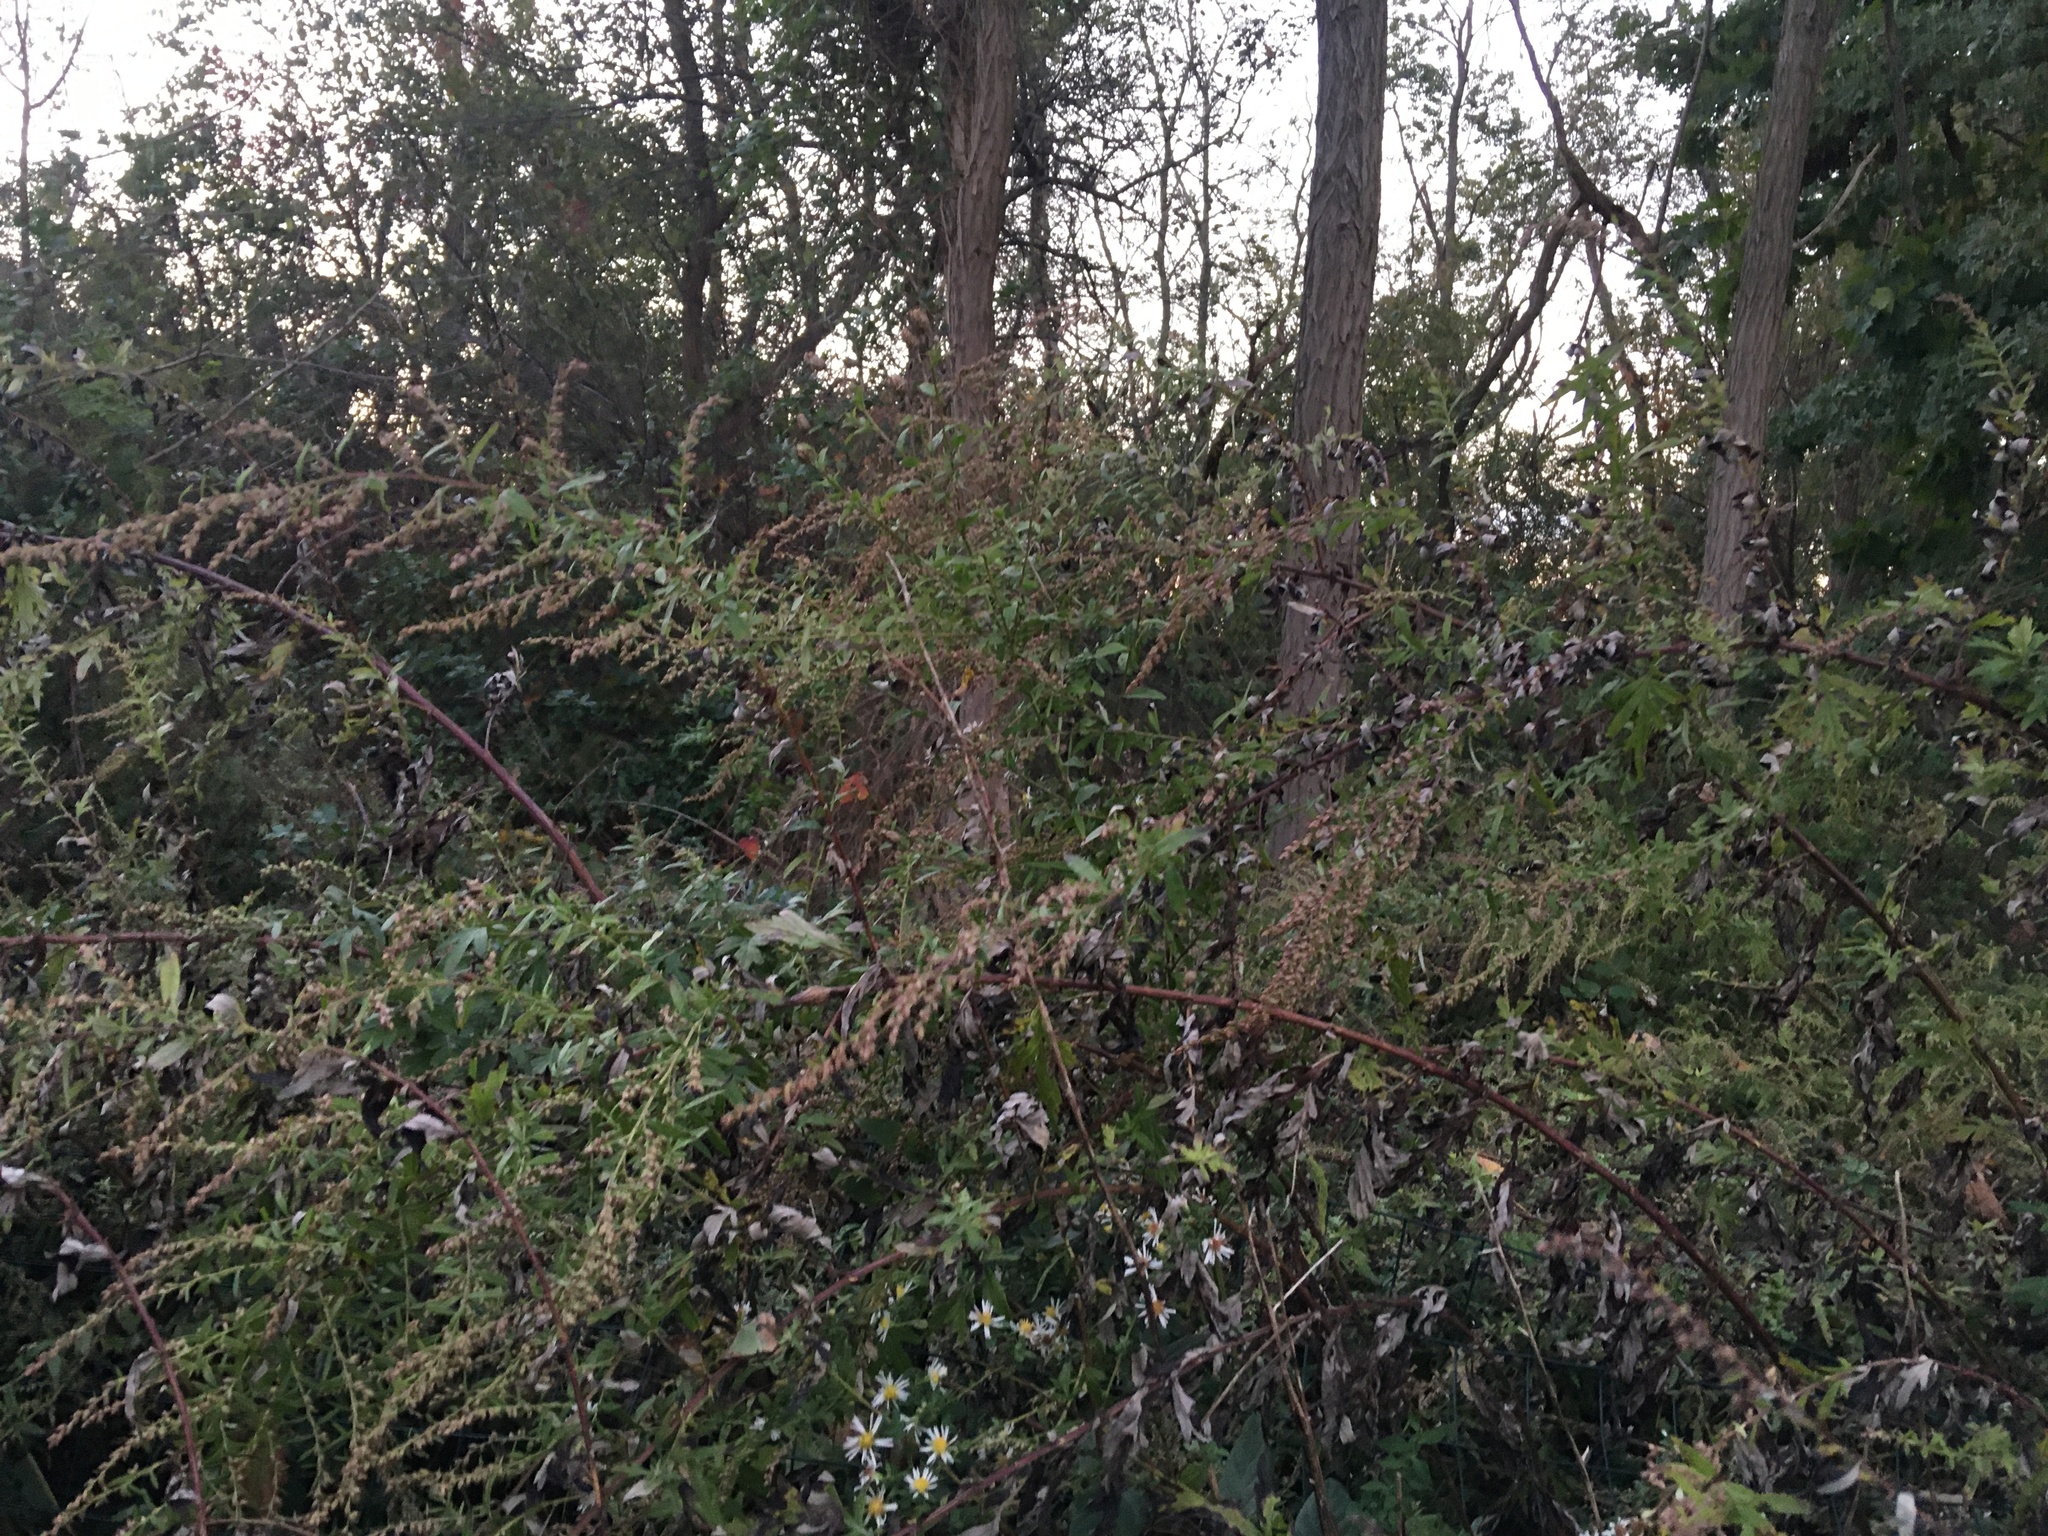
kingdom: Plantae
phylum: Tracheophyta
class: Magnoliopsida
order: Asterales
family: Asteraceae
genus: Artemisia
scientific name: Artemisia vulgaris
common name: Mugwort
